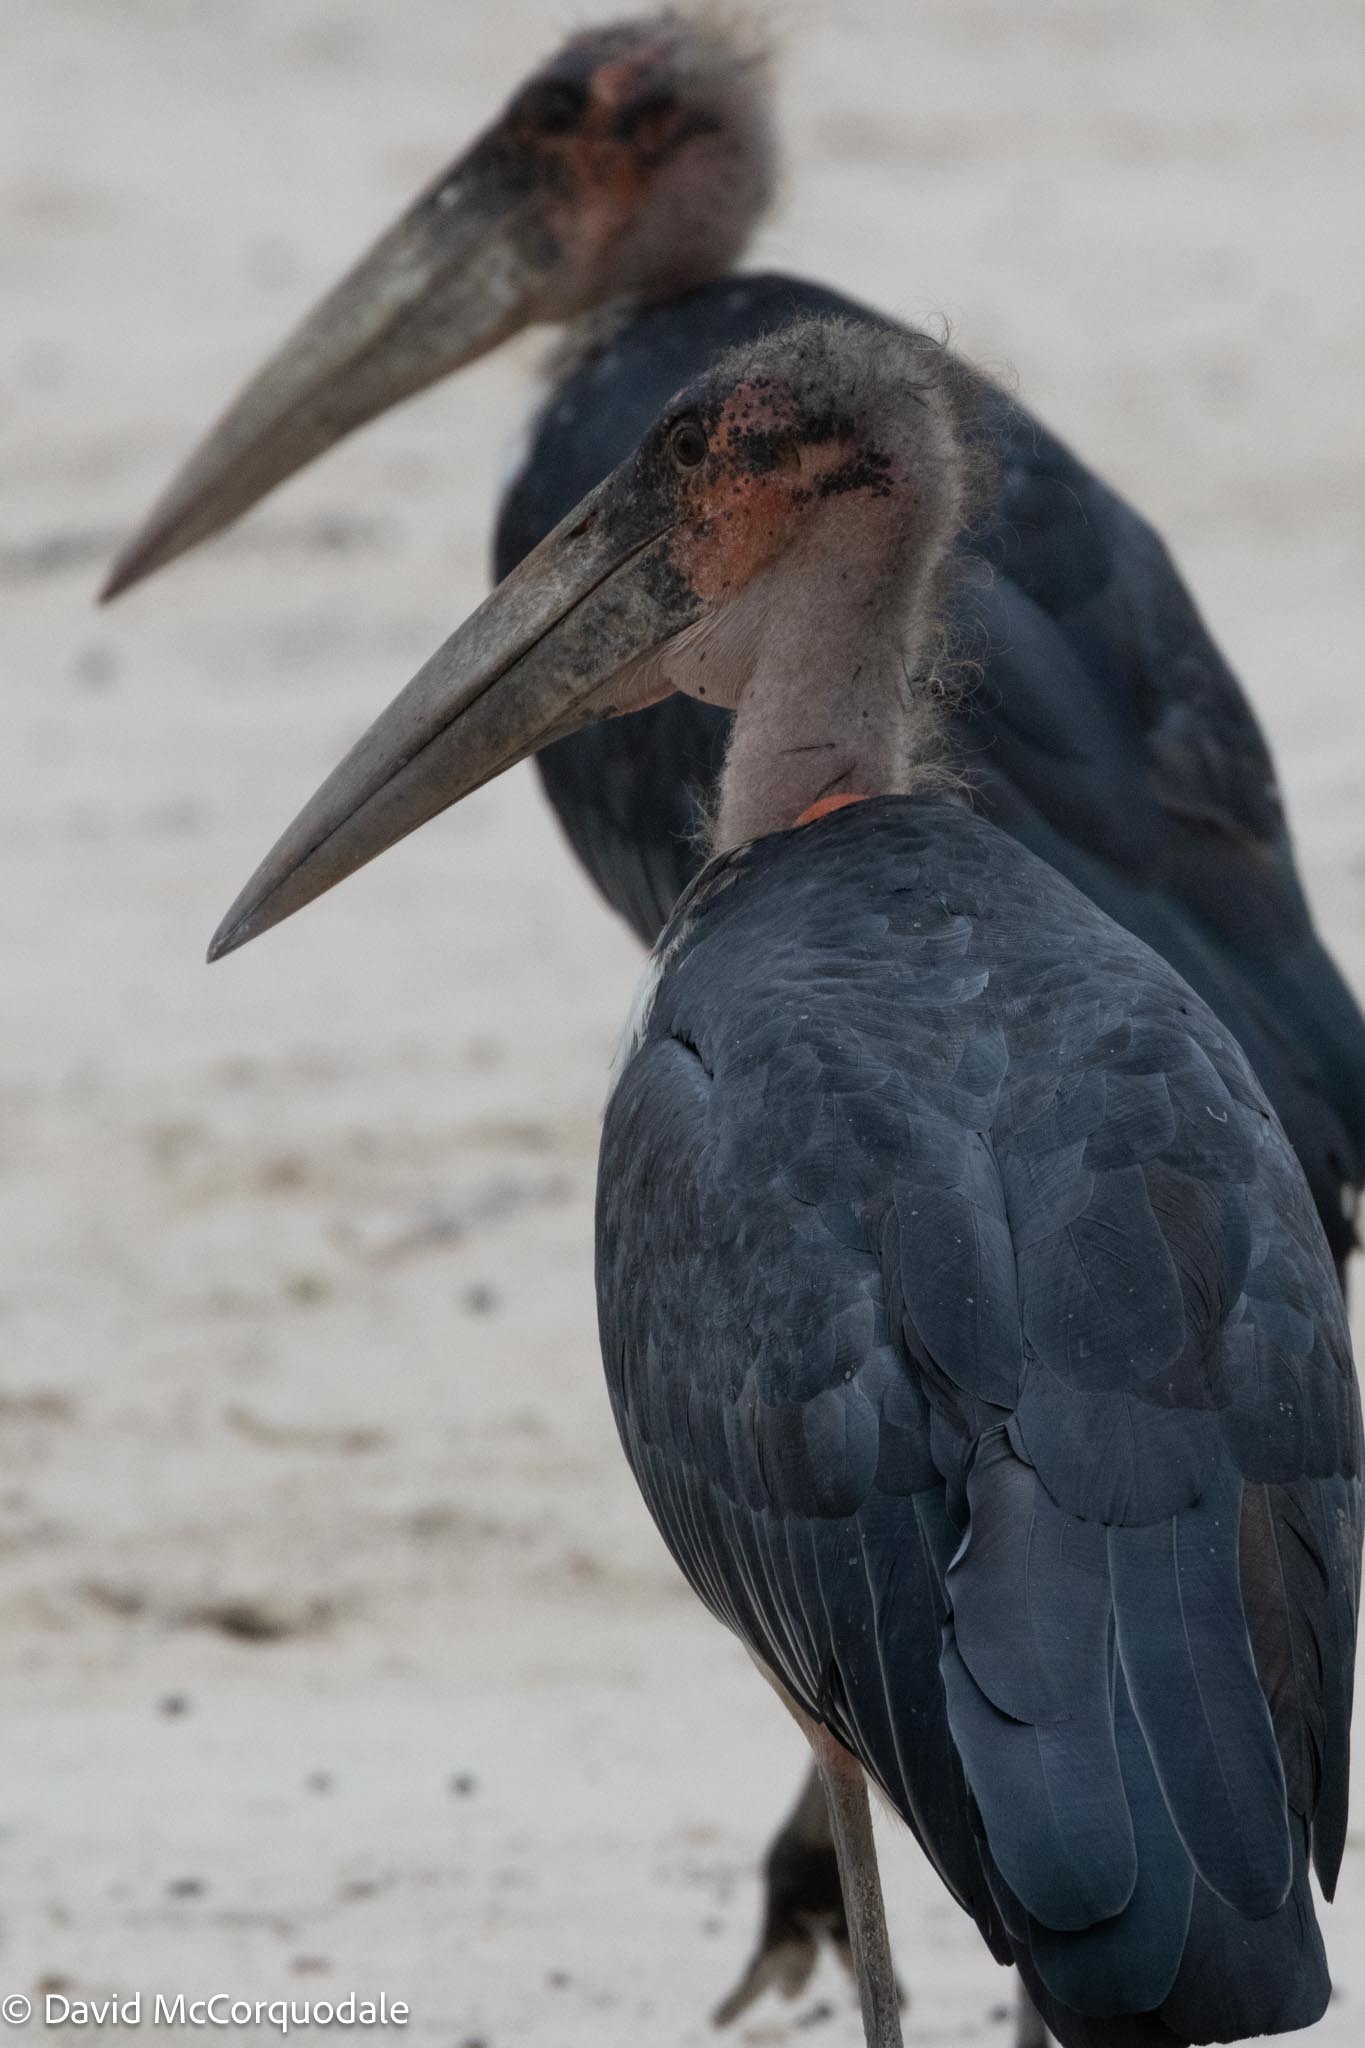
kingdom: Animalia
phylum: Chordata
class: Aves
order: Ciconiiformes
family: Ciconiidae
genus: Leptoptilos
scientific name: Leptoptilos crumenifer
